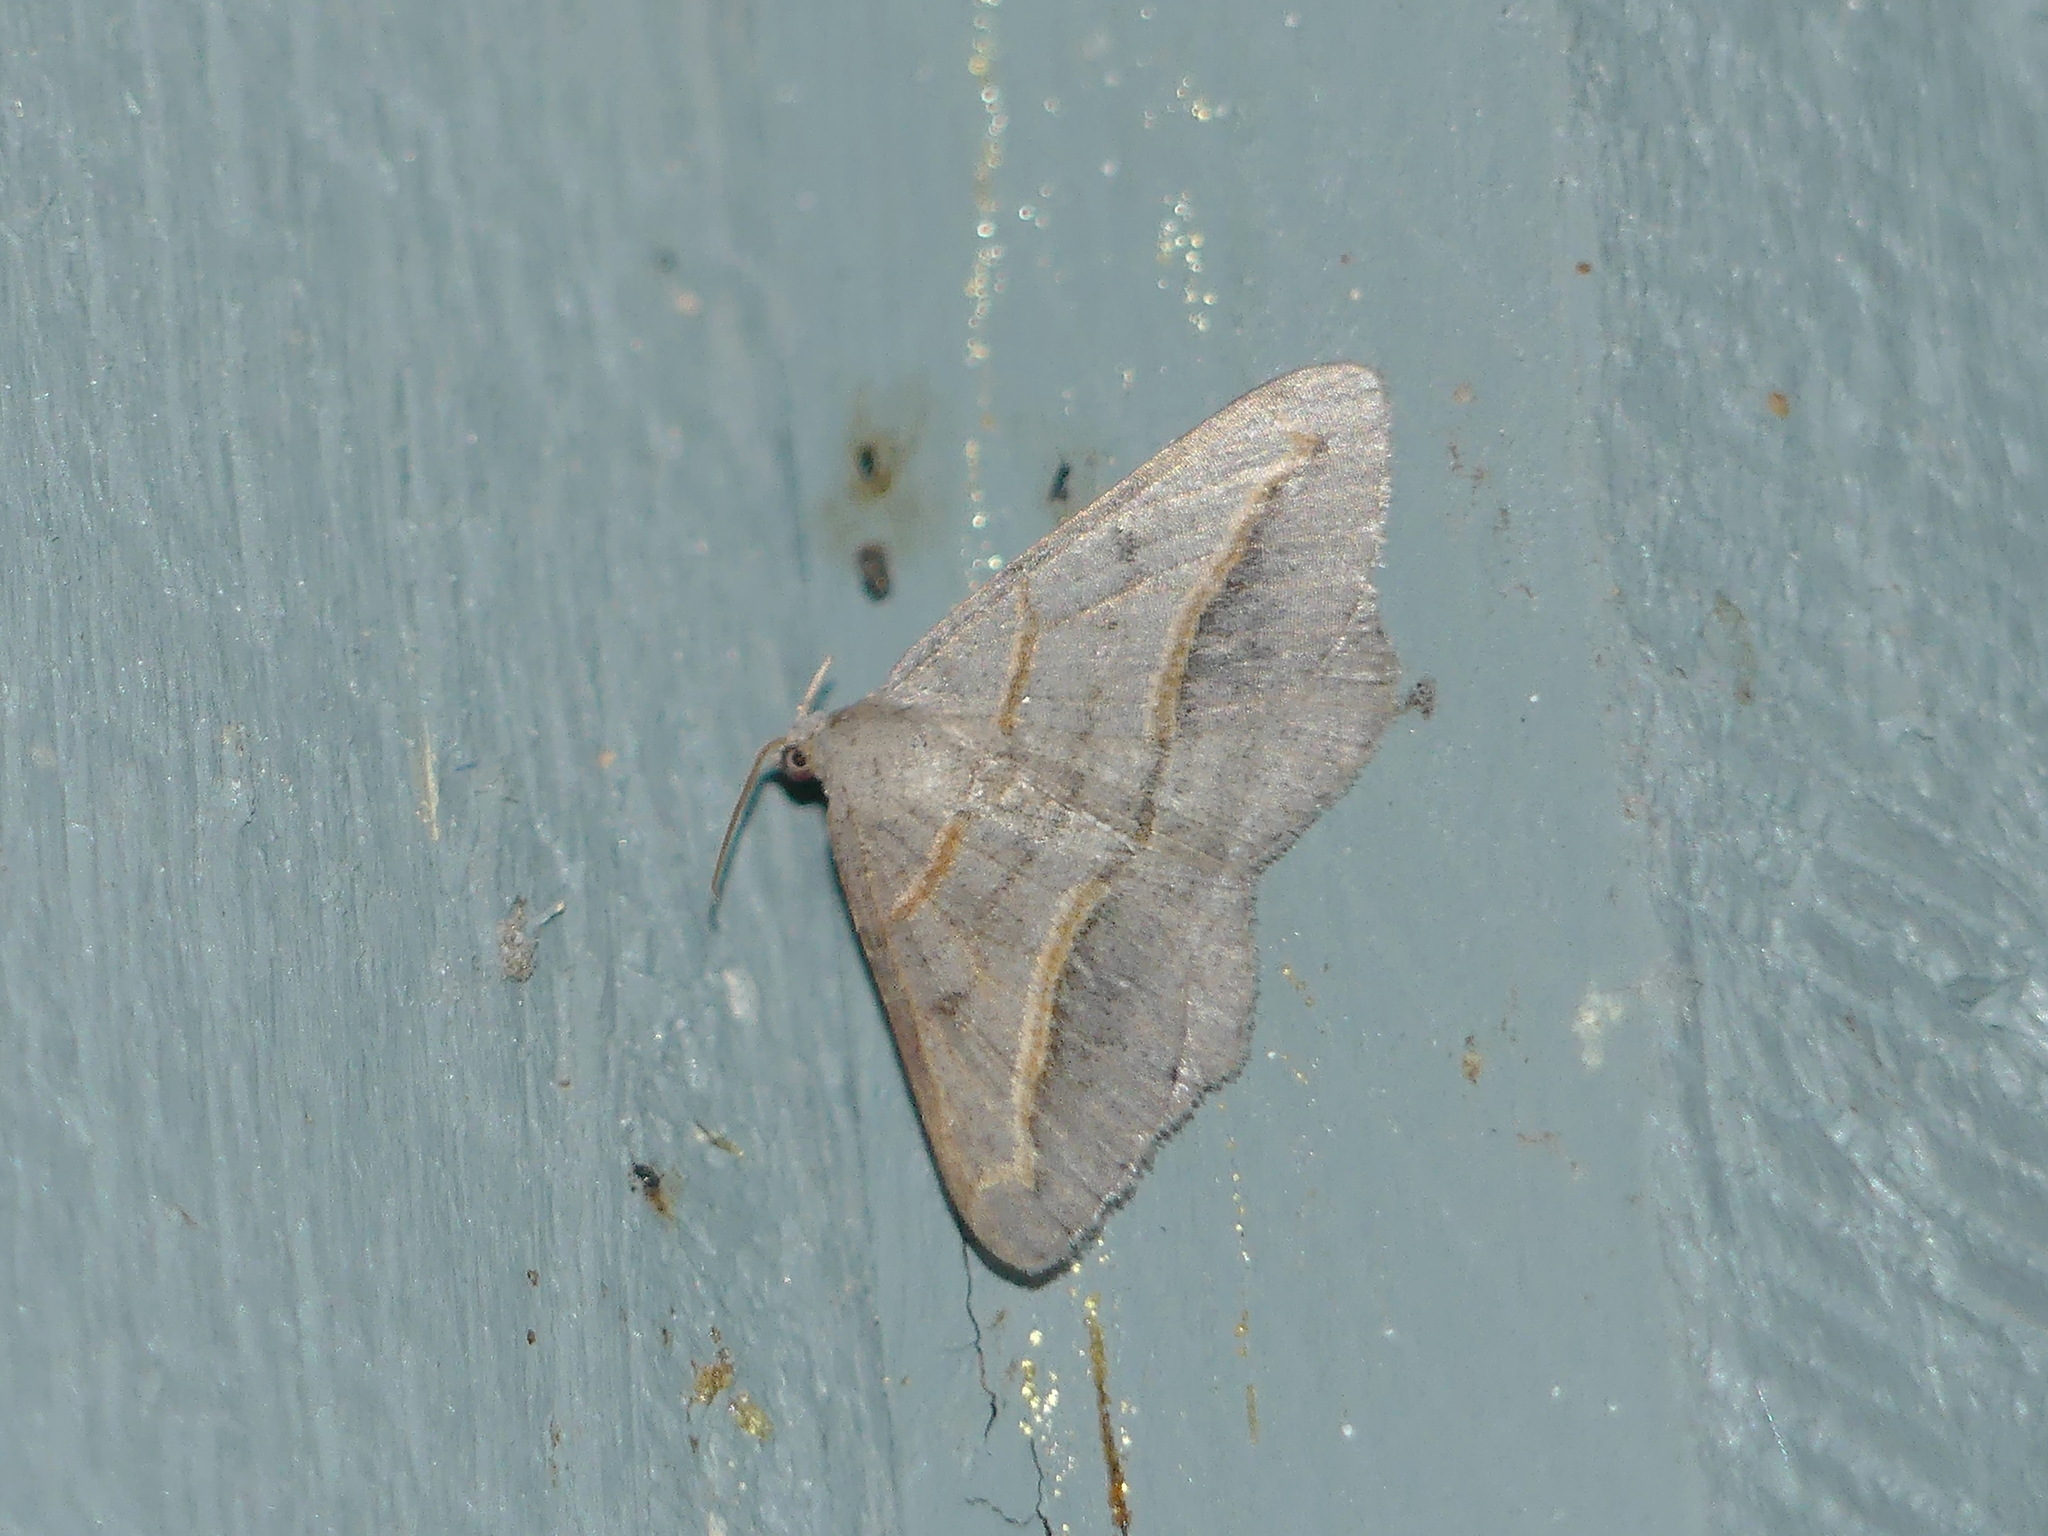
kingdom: Animalia
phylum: Arthropoda
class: Insecta
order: Lepidoptera
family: Geometridae
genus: Digrammia
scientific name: Digrammia mellistrigata
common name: Yellow-lined angle
